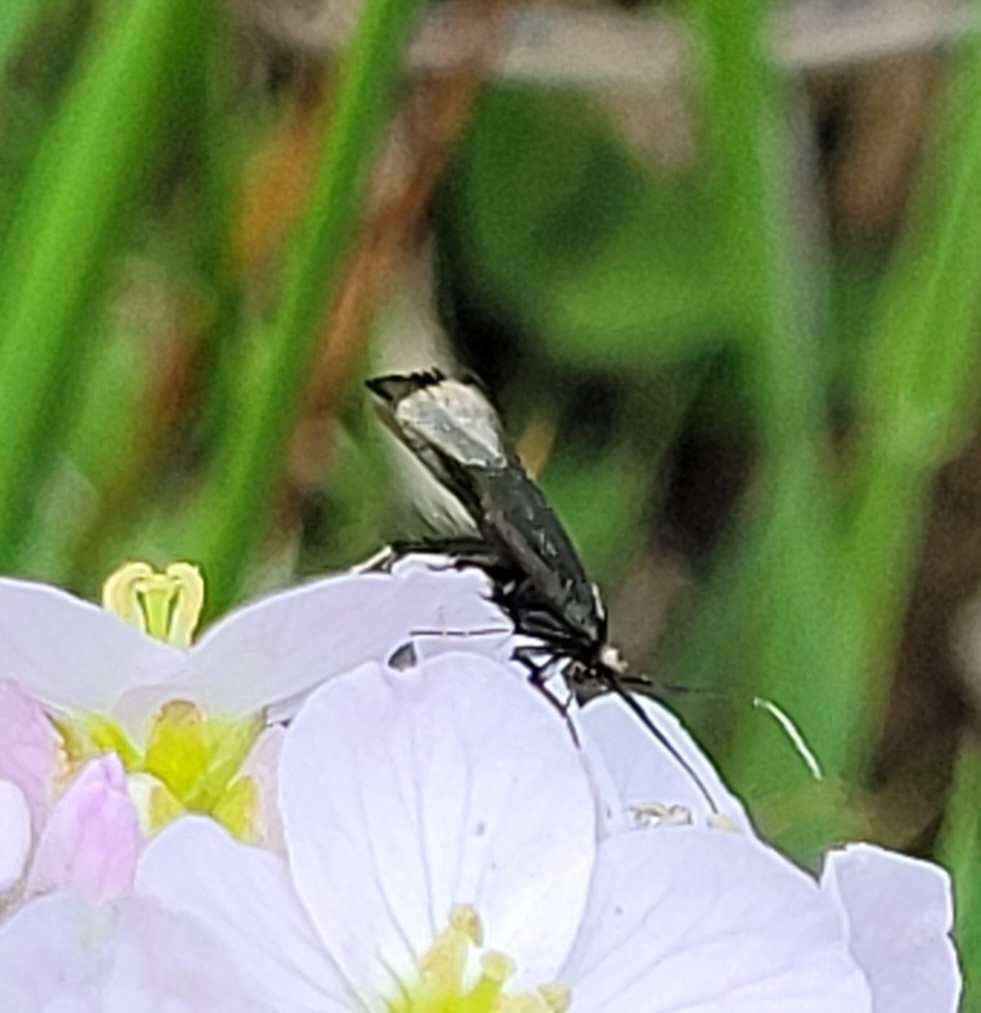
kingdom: Animalia
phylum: Arthropoda
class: Insecta
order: Lepidoptera
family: Adelidae
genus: Adela
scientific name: Adela viridella
